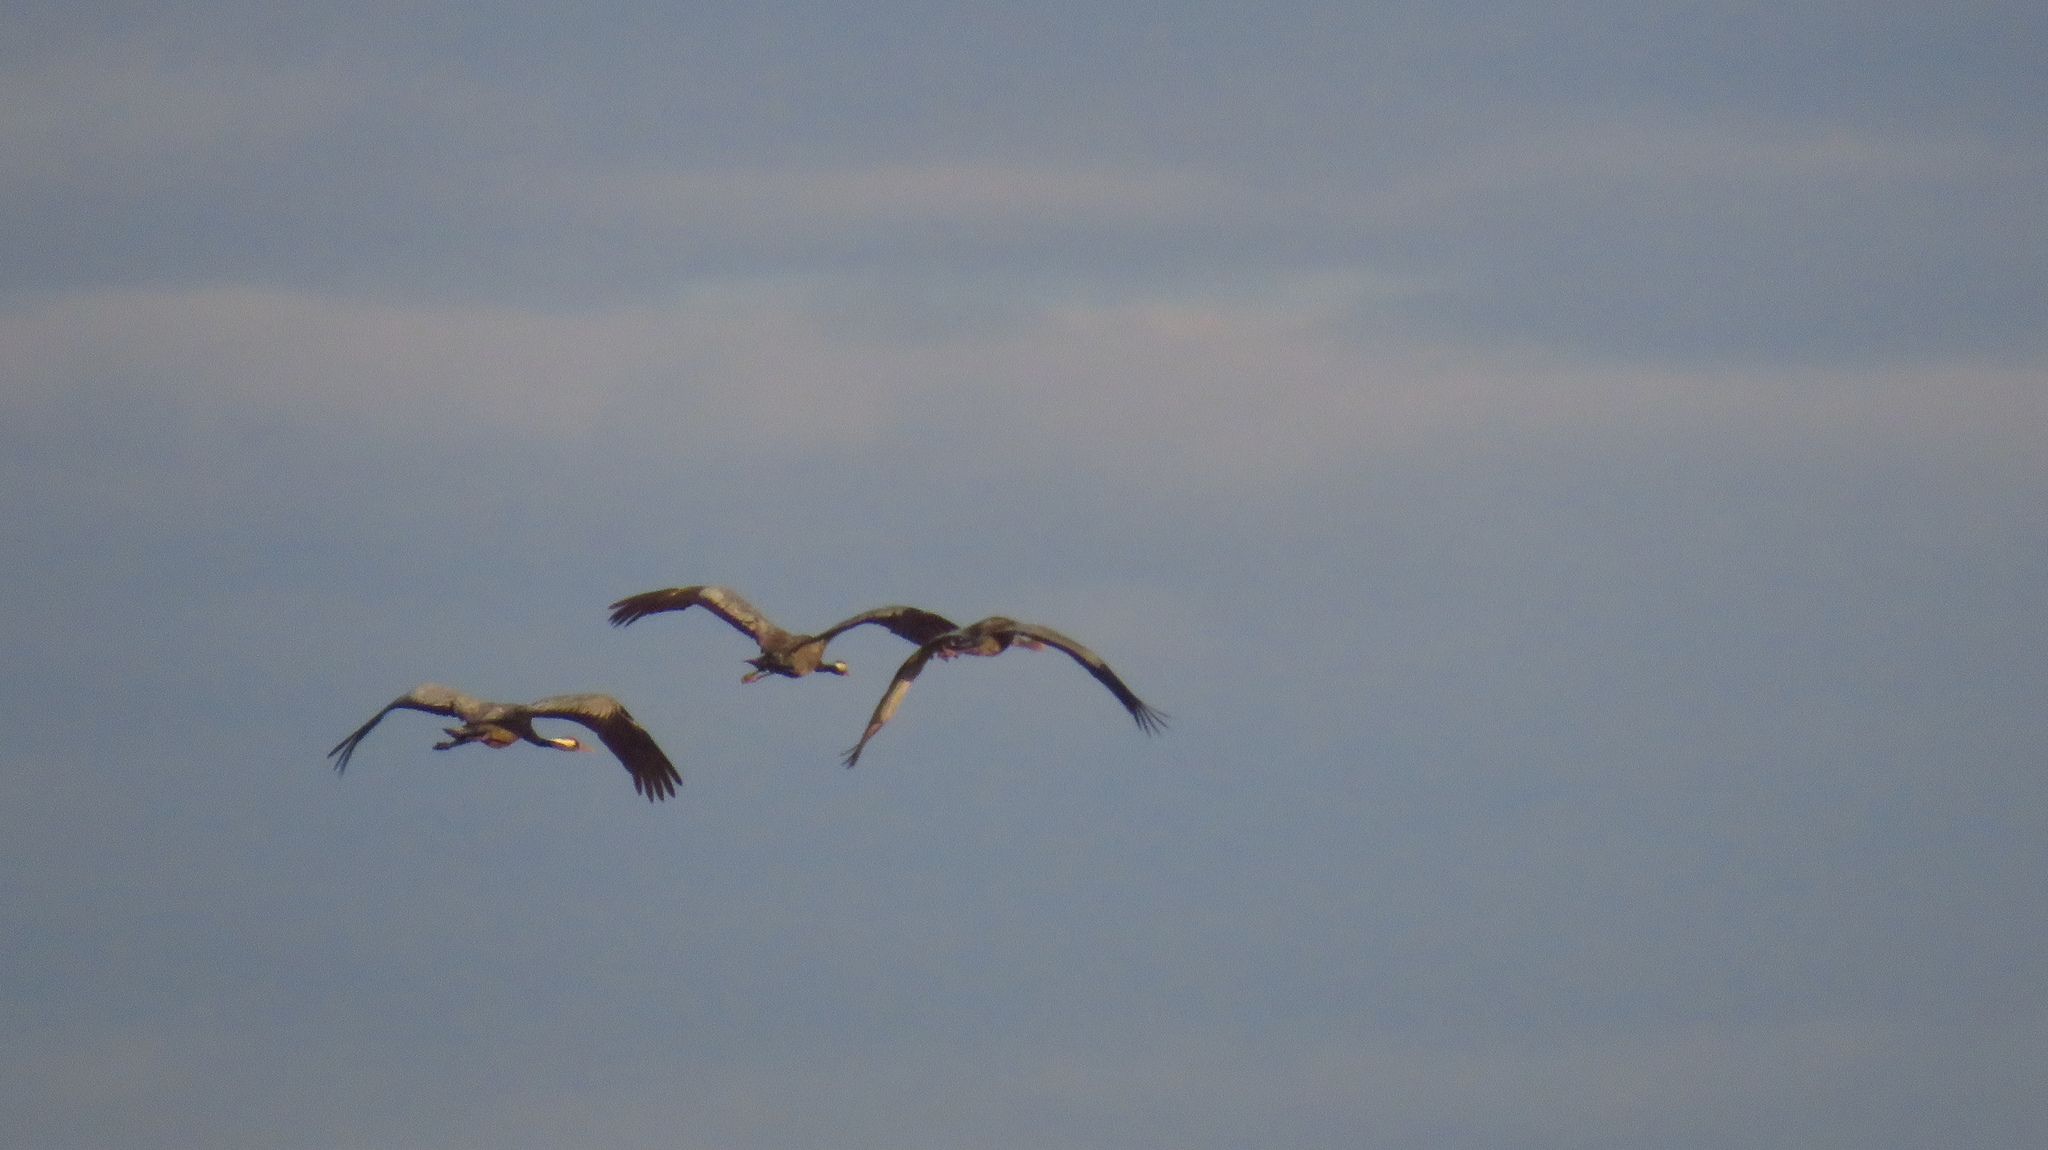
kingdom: Animalia
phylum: Chordata
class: Aves
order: Gruiformes
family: Gruidae
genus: Grus
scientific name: Grus grus
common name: Common crane
